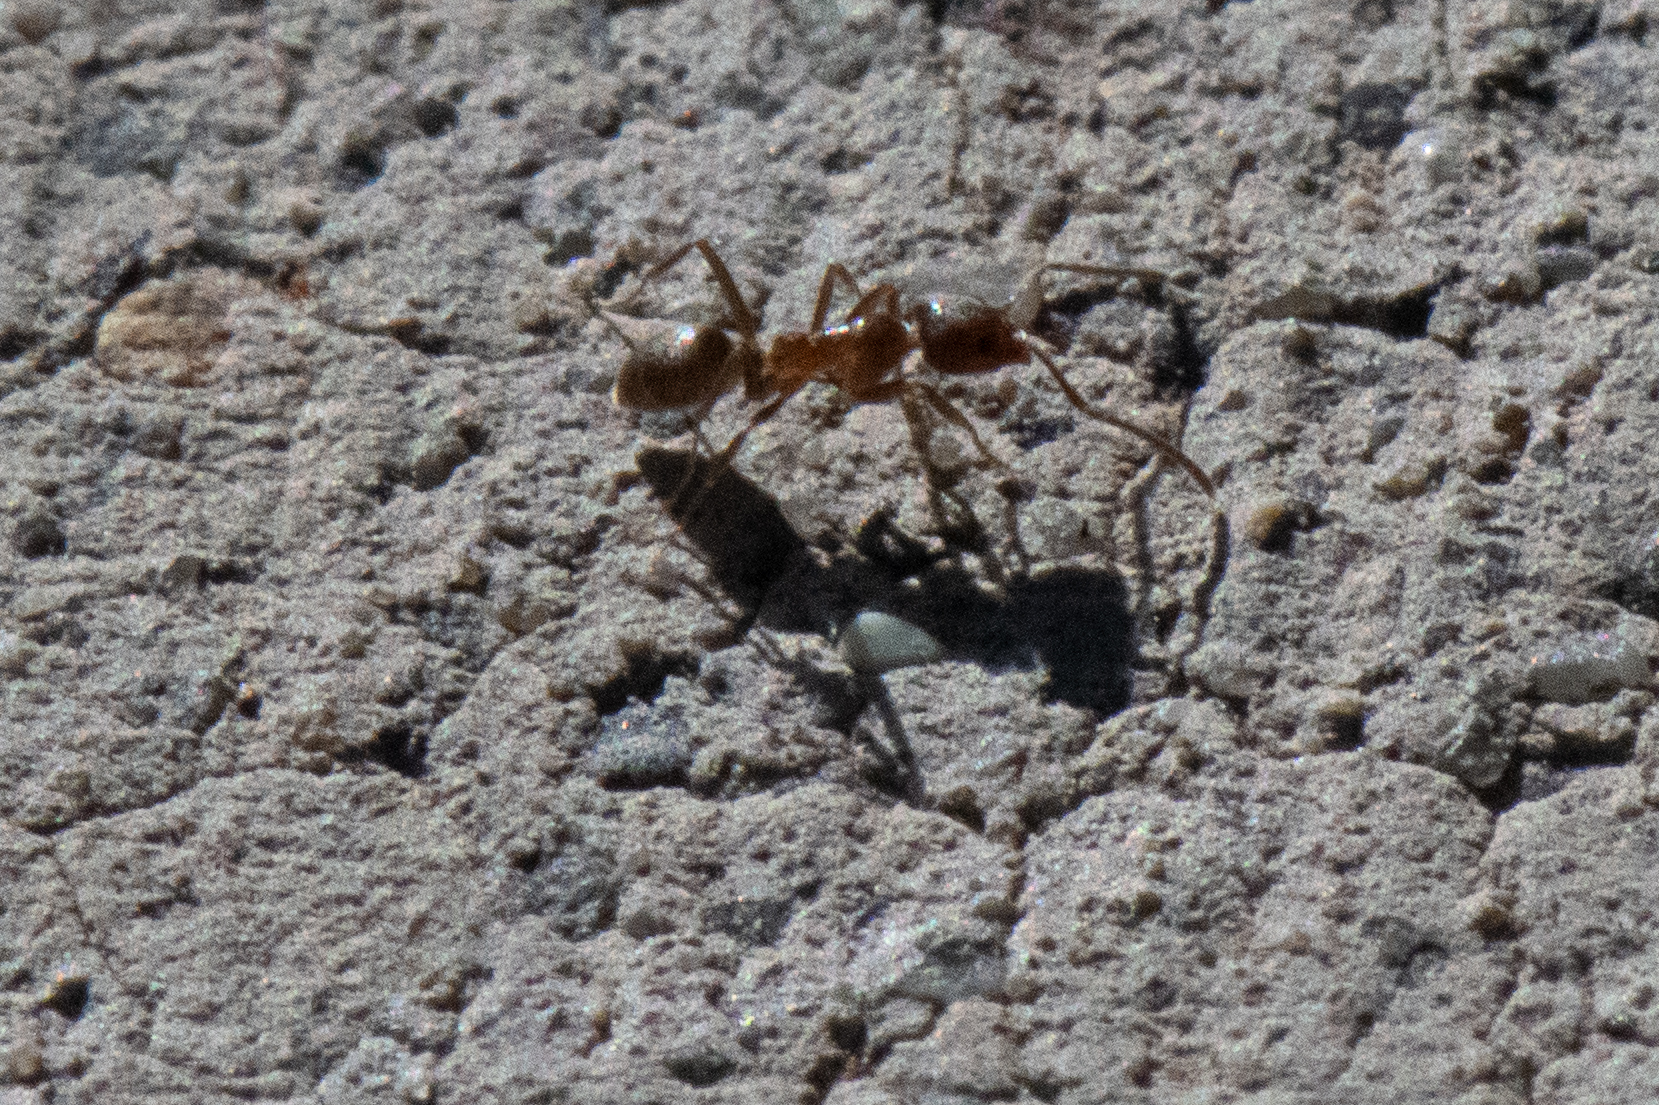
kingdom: Animalia
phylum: Arthropoda
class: Insecta
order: Hymenoptera
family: Formicidae
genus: Linepithema
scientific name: Linepithema humile
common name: Argentine ant
